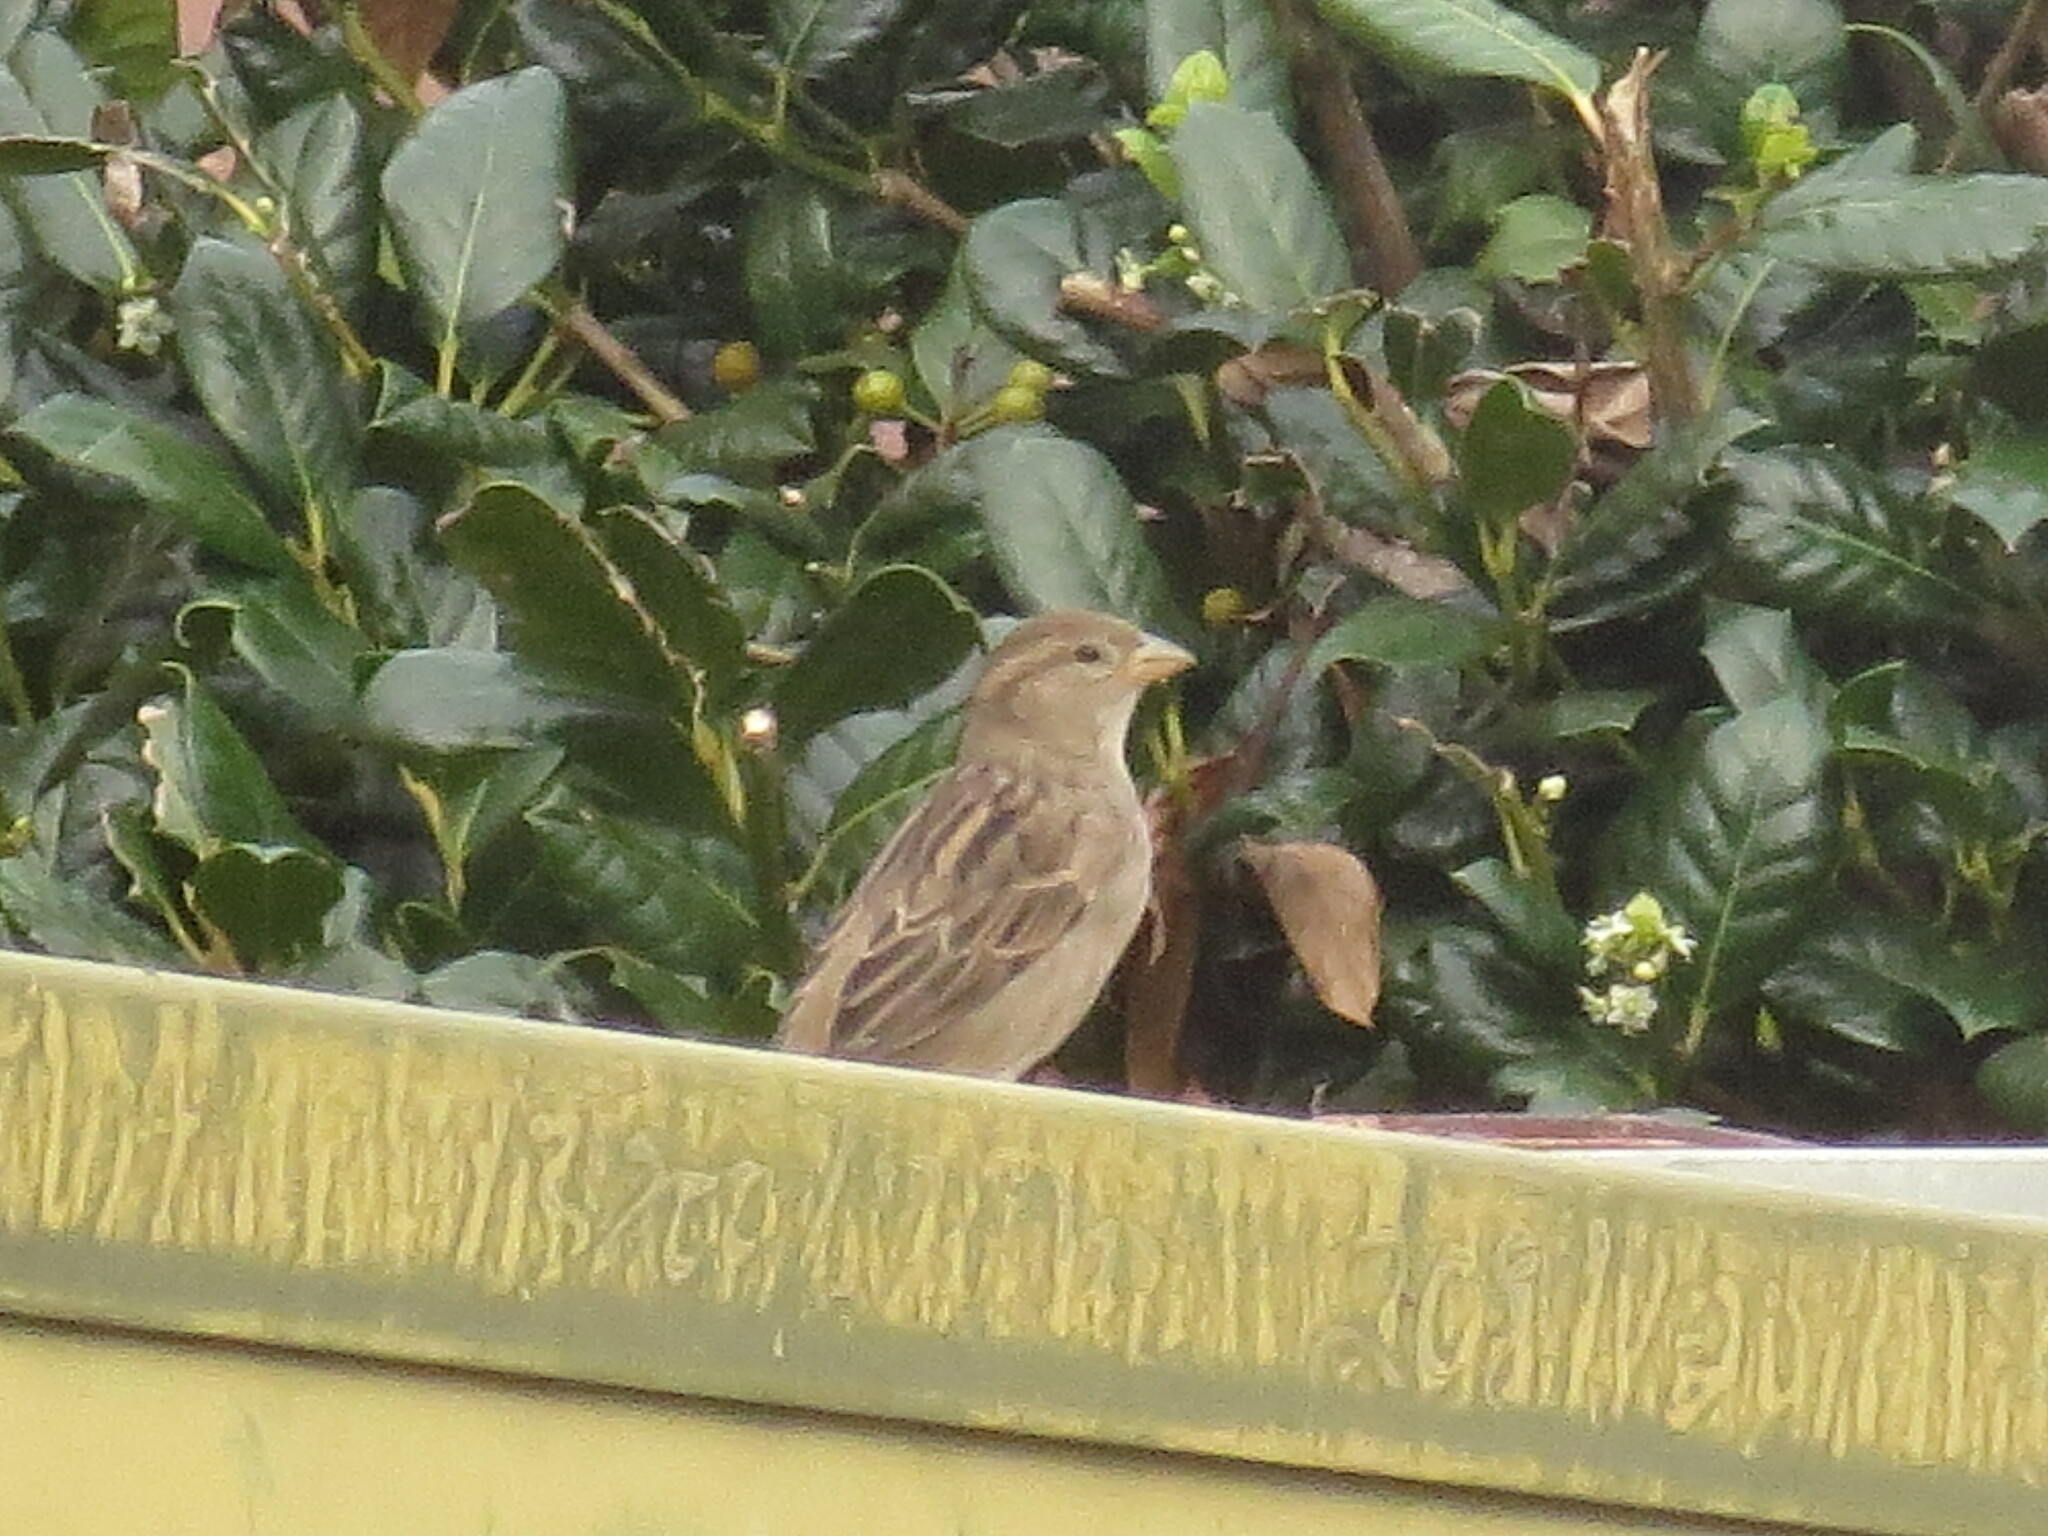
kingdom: Animalia
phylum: Chordata
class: Aves
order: Passeriformes
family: Passeridae
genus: Passer
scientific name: Passer domesticus
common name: House sparrow
